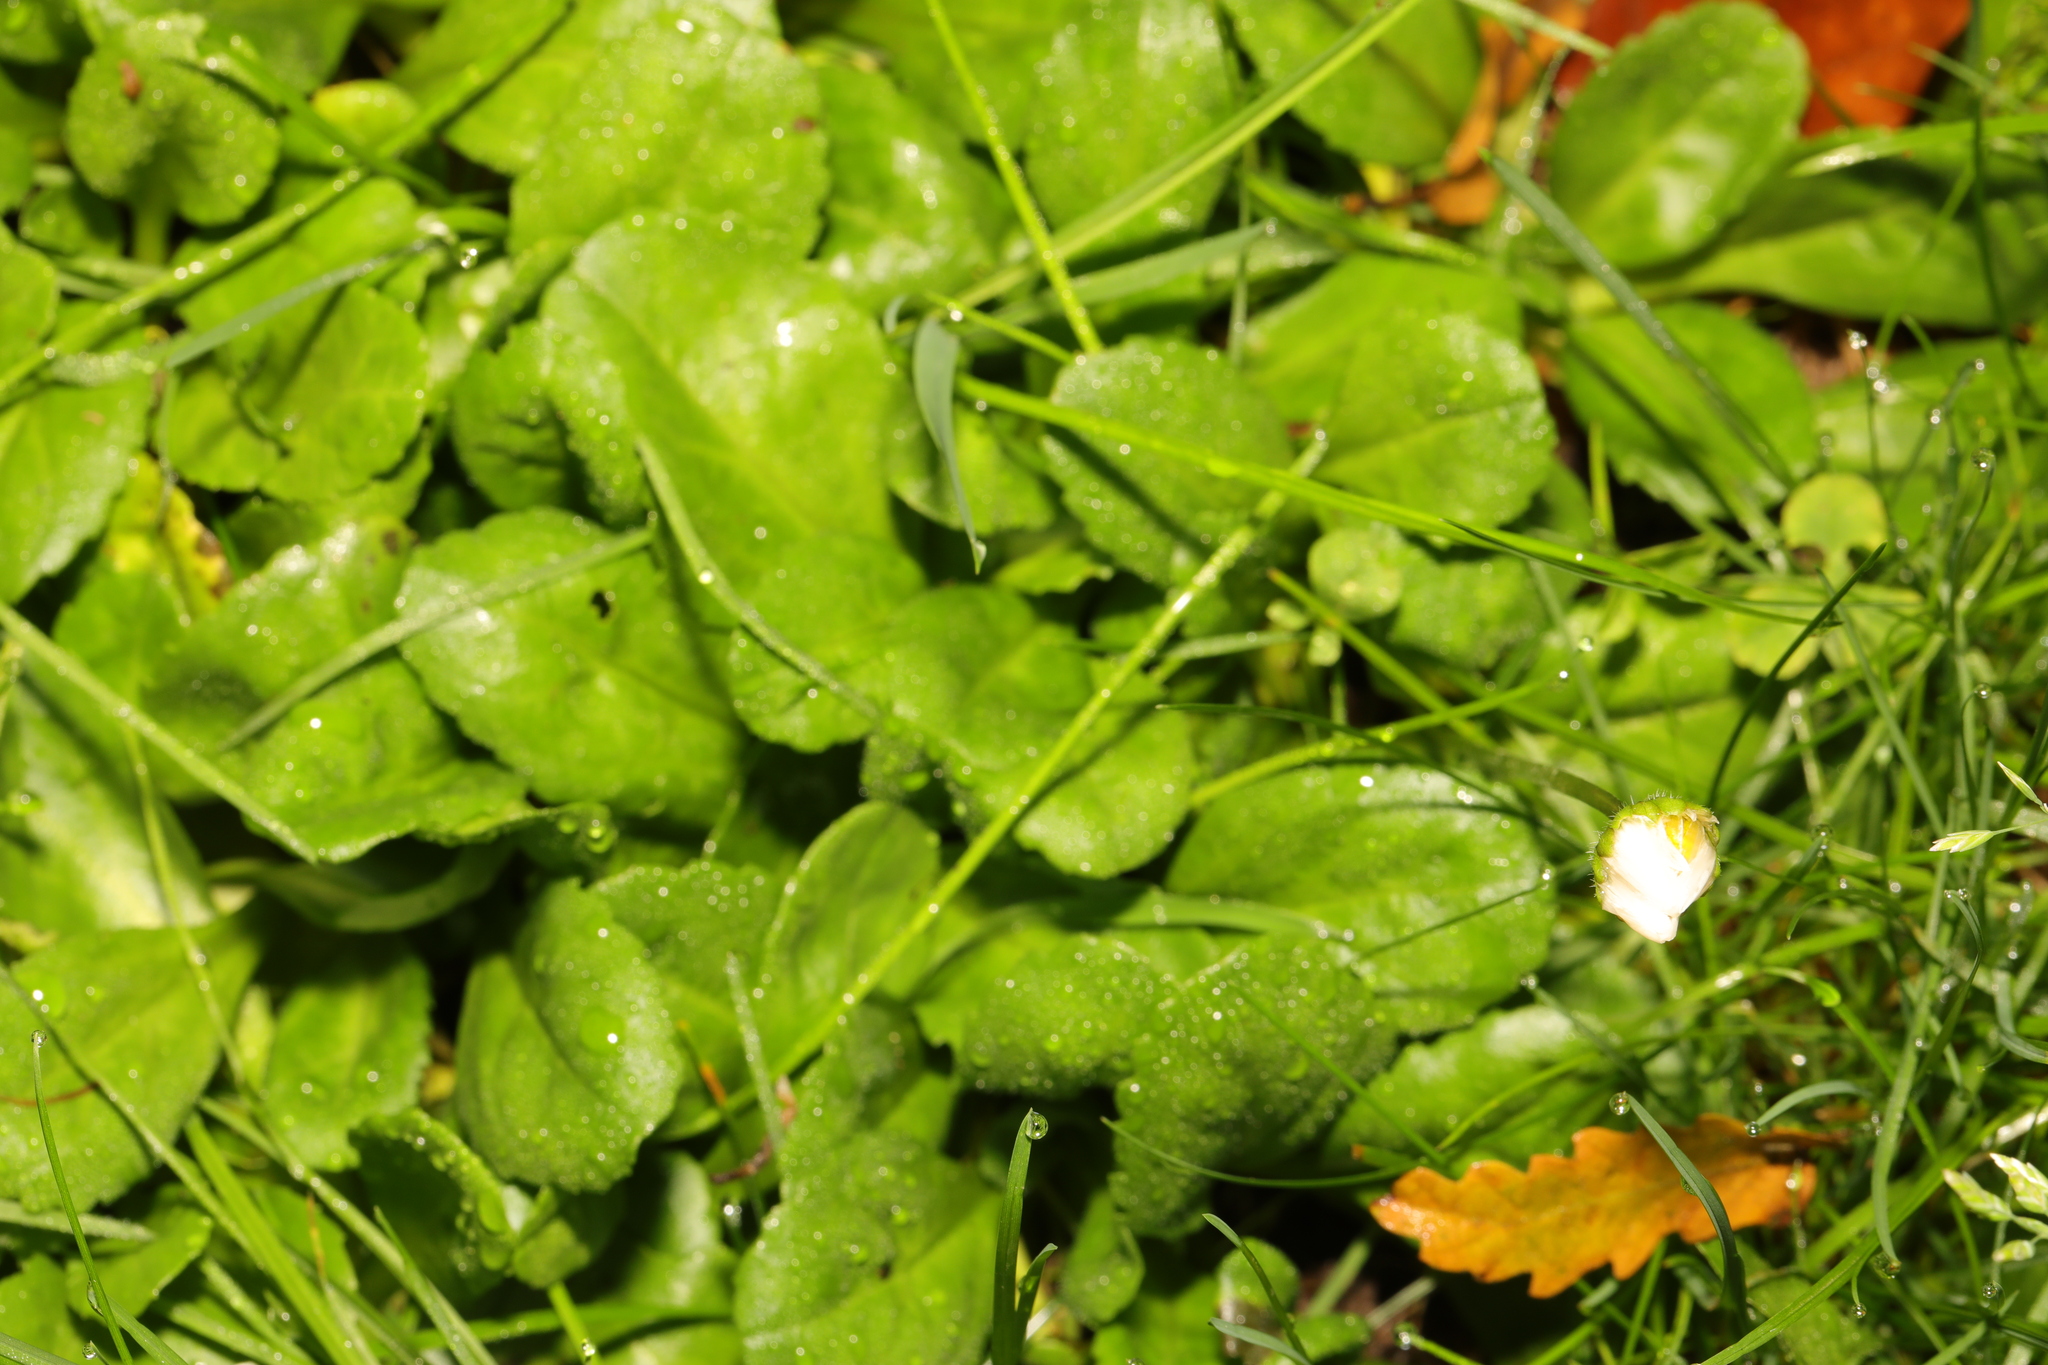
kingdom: Plantae
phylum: Tracheophyta
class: Magnoliopsida
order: Asterales
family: Asteraceae
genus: Bellis
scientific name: Bellis perennis
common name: Lawndaisy
